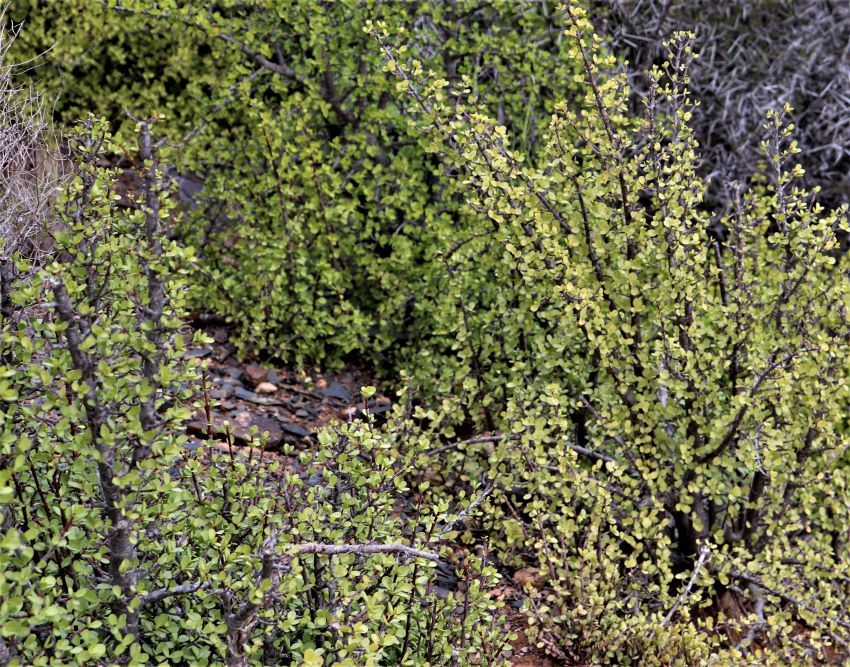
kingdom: Plantae
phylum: Tracheophyta
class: Magnoliopsida
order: Caryophyllales
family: Didiereaceae
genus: Portulacaria
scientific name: Portulacaria afra
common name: Elephant-bush
